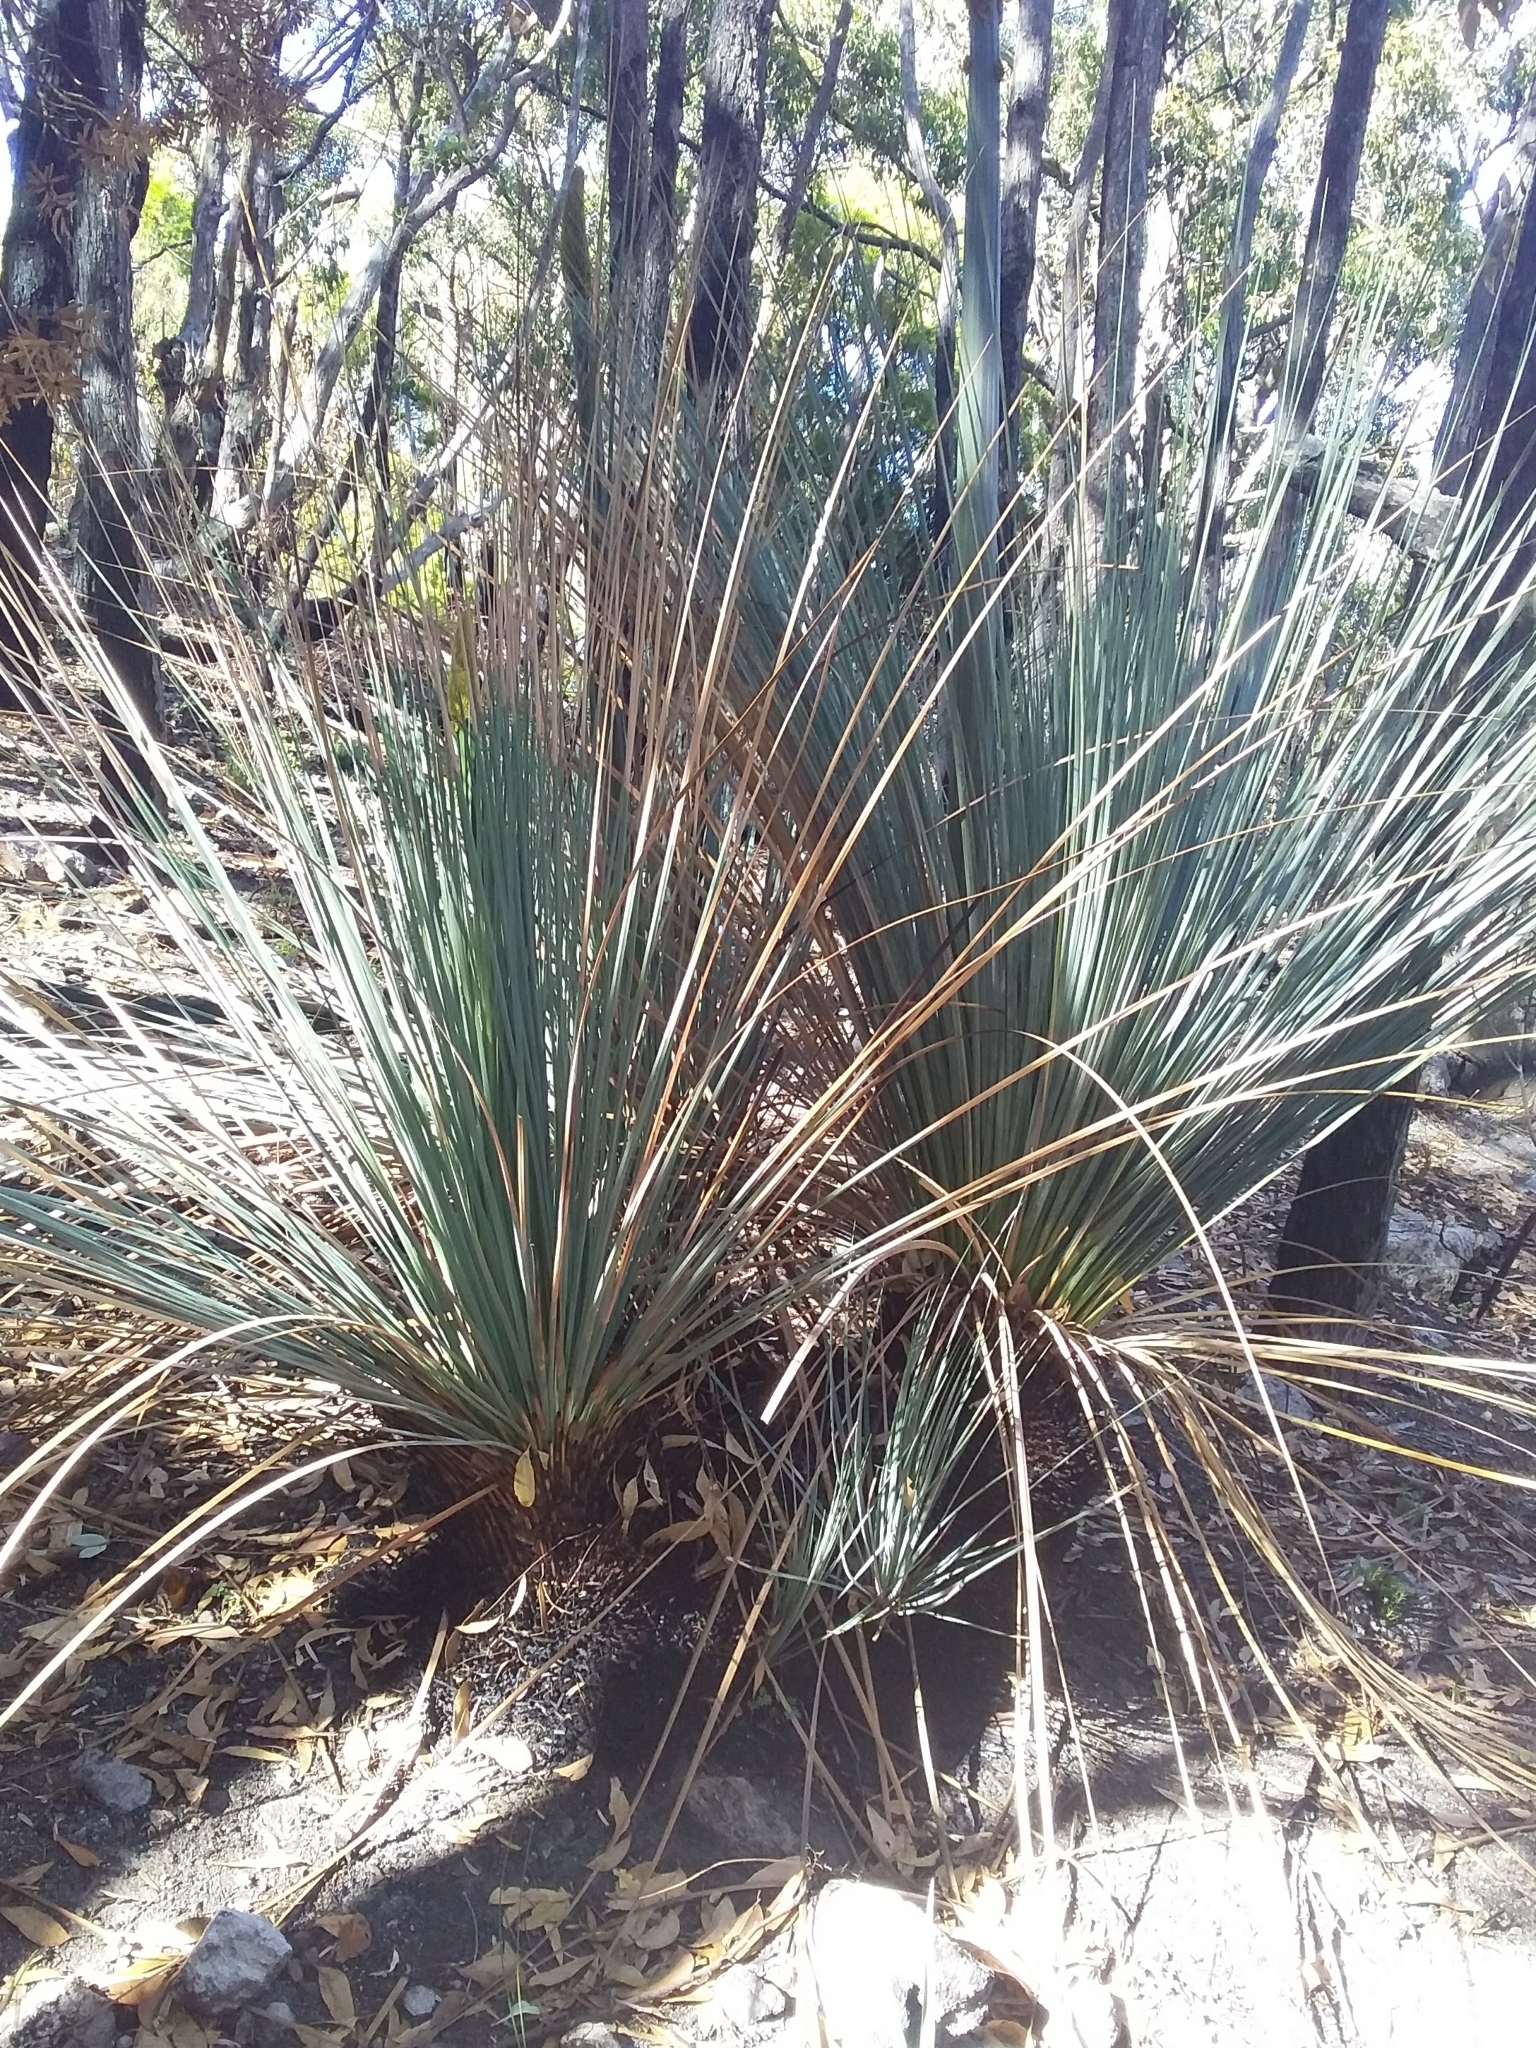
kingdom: Plantae
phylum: Tracheophyta
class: Liliopsida
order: Asparagales
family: Asphodelaceae
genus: Xanthorrhoea
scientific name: Xanthorrhoea semiplana
